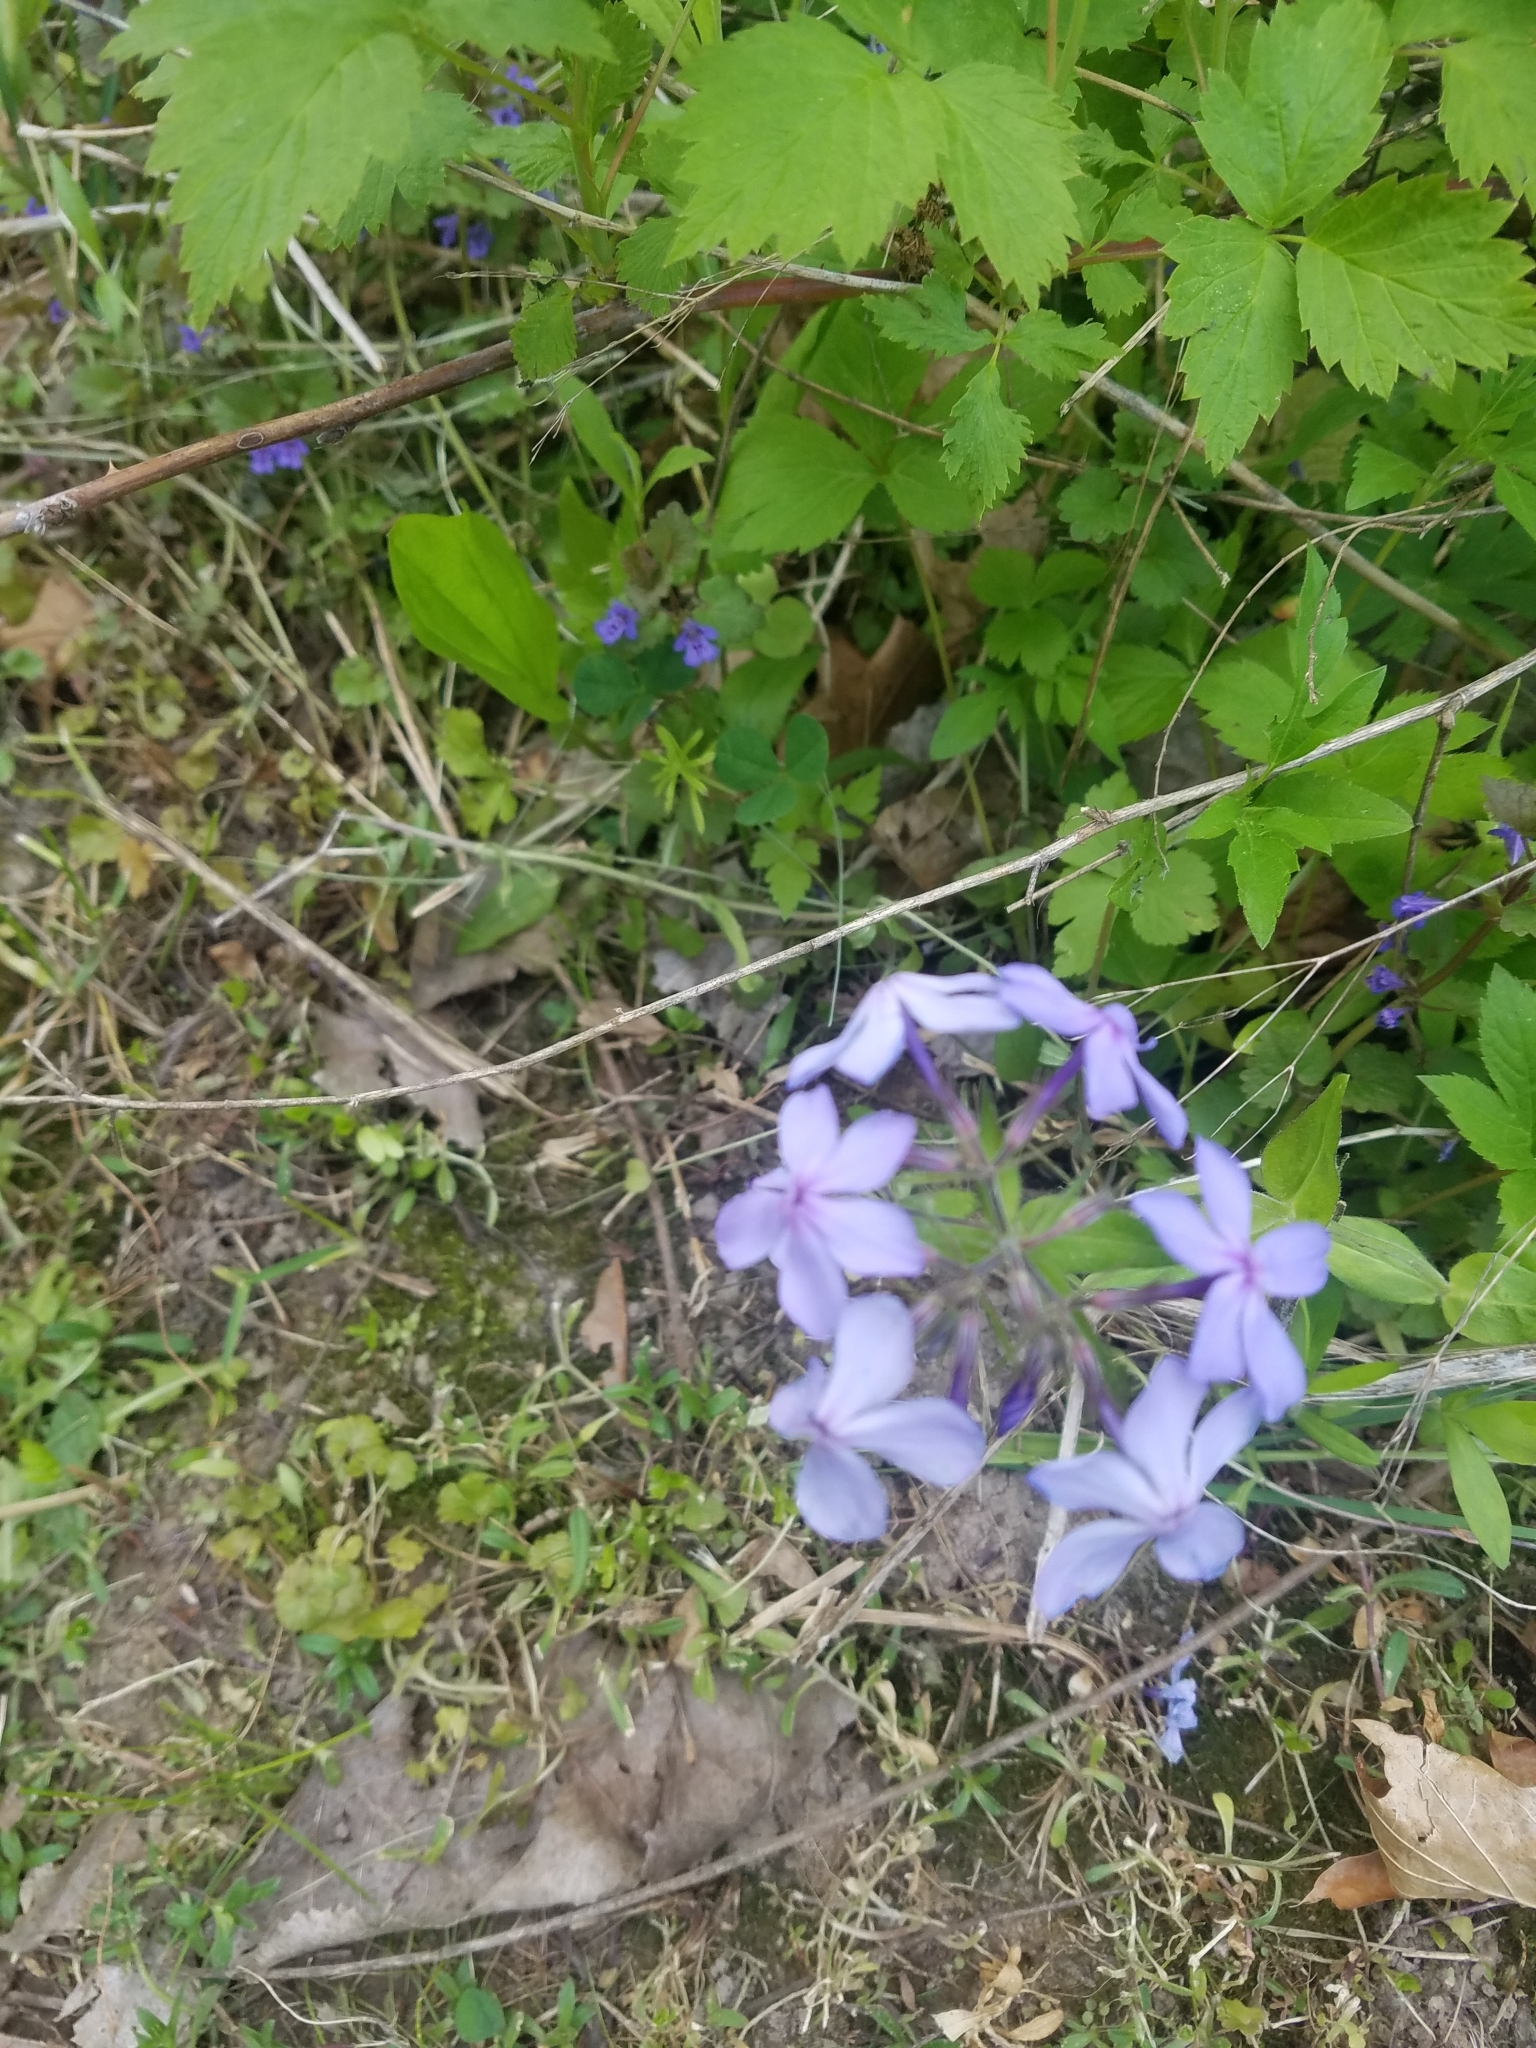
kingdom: Plantae
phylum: Tracheophyta
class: Magnoliopsida
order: Ericales
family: Polemoniaceae
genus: Phlox
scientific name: Phlox divaricata
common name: Blue phlox
